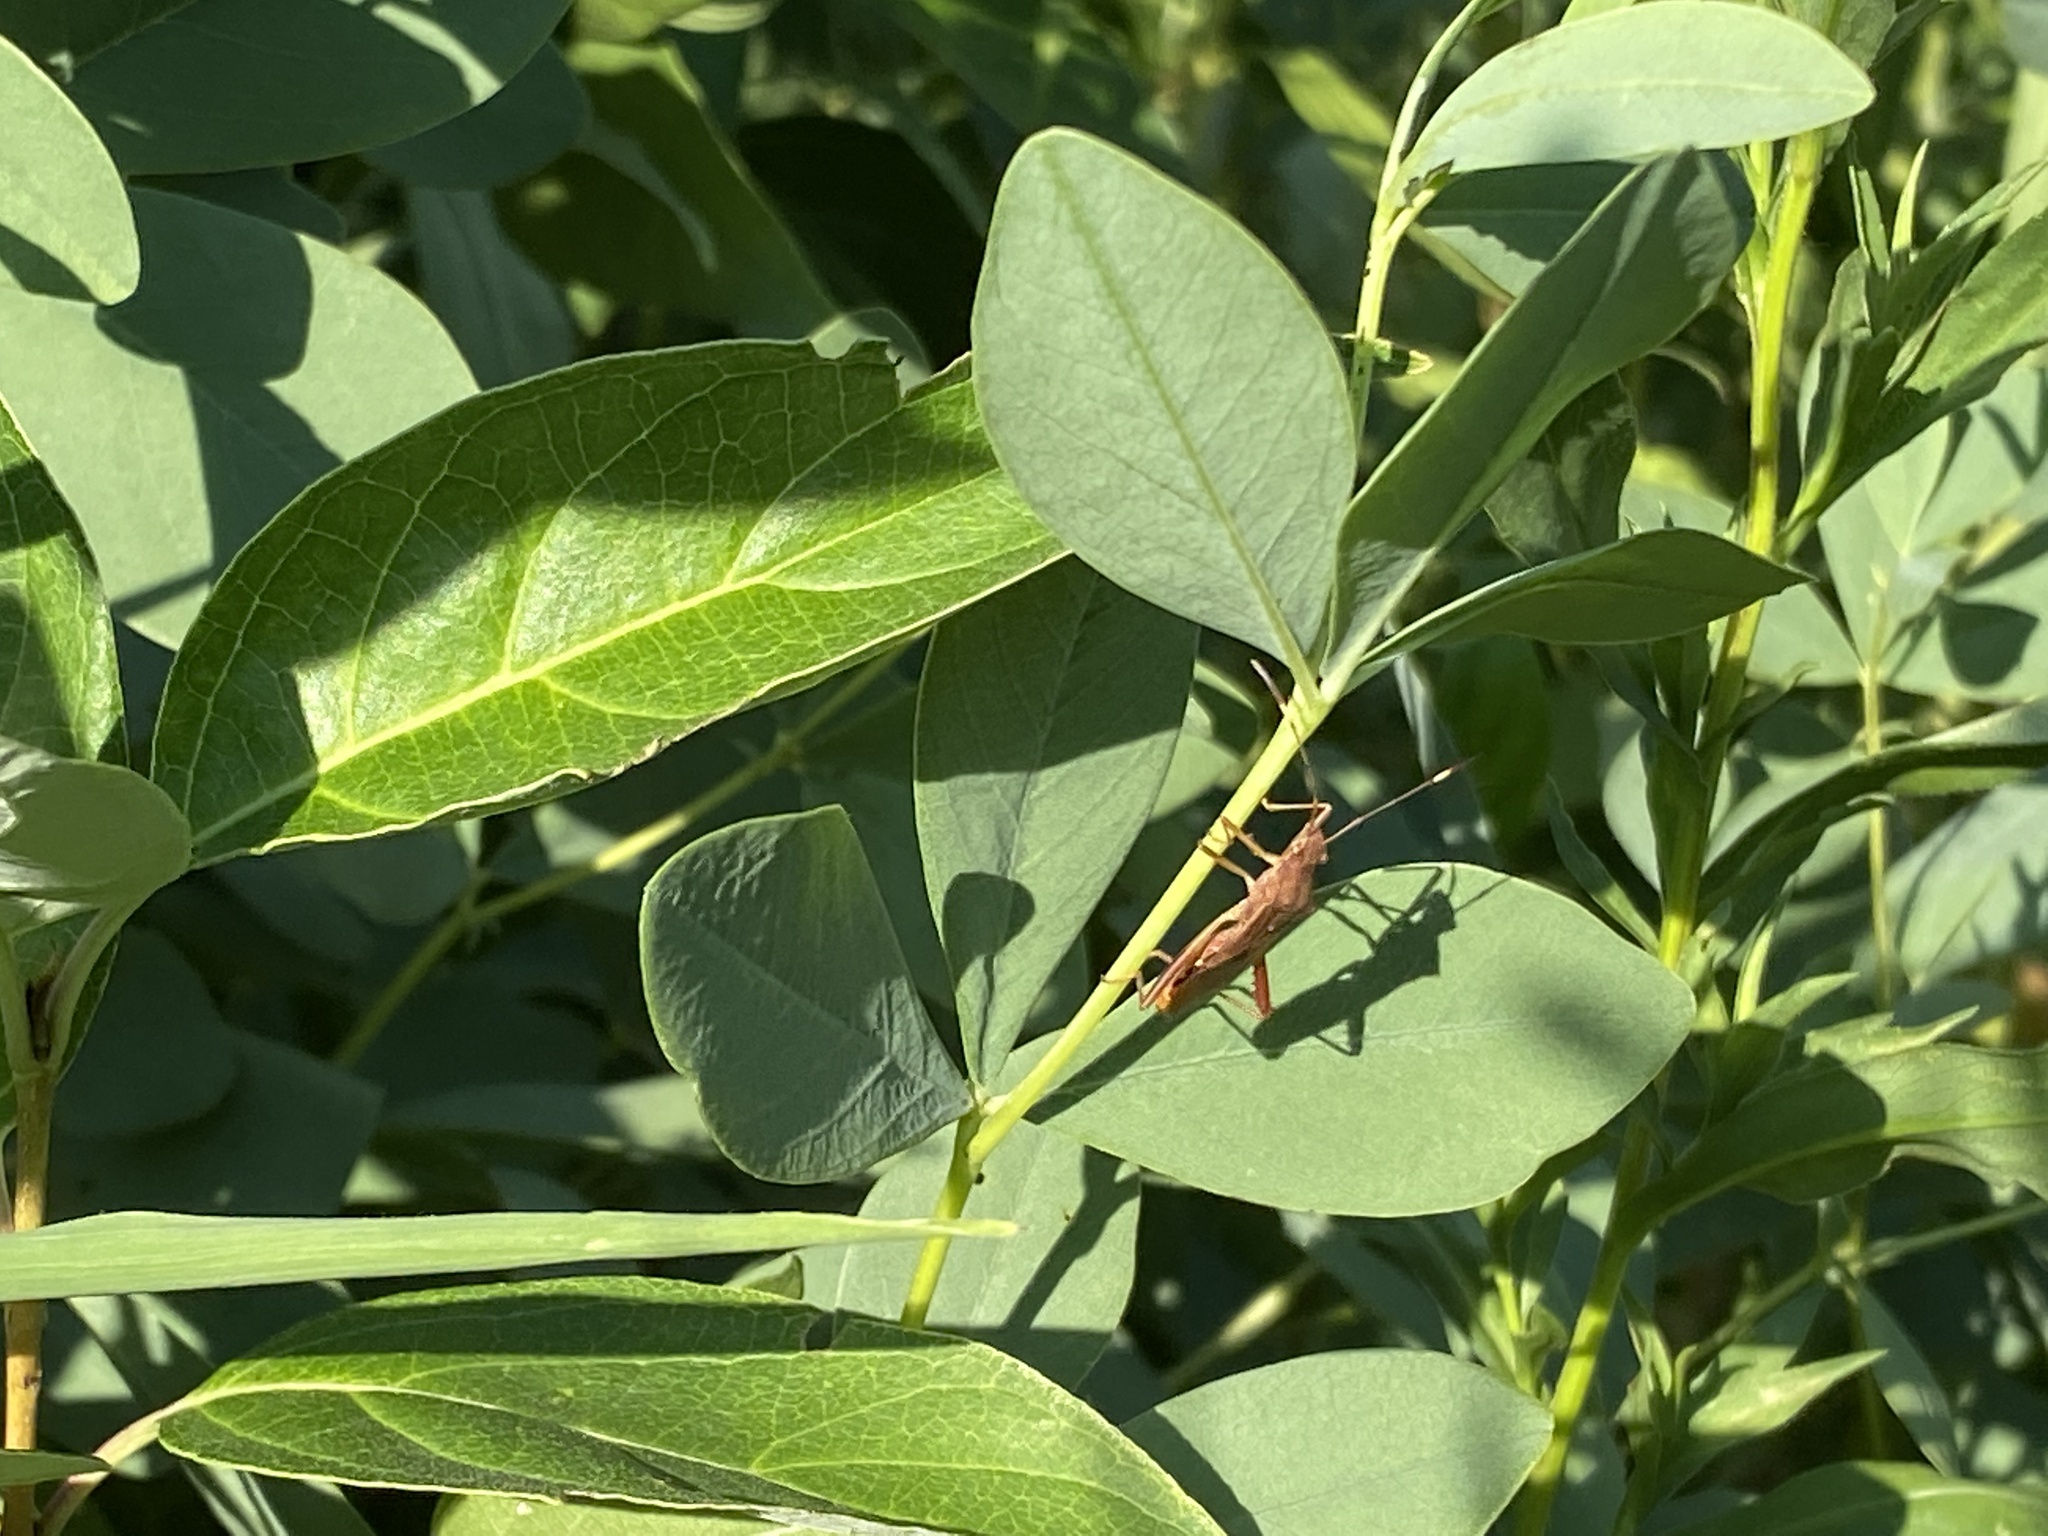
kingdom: Animalia
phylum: Arthropoda
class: Insecta
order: Hemiptera
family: Alydidae
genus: Megalotomus
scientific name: Megalotomus quinquespinosus
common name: Lupine bug
